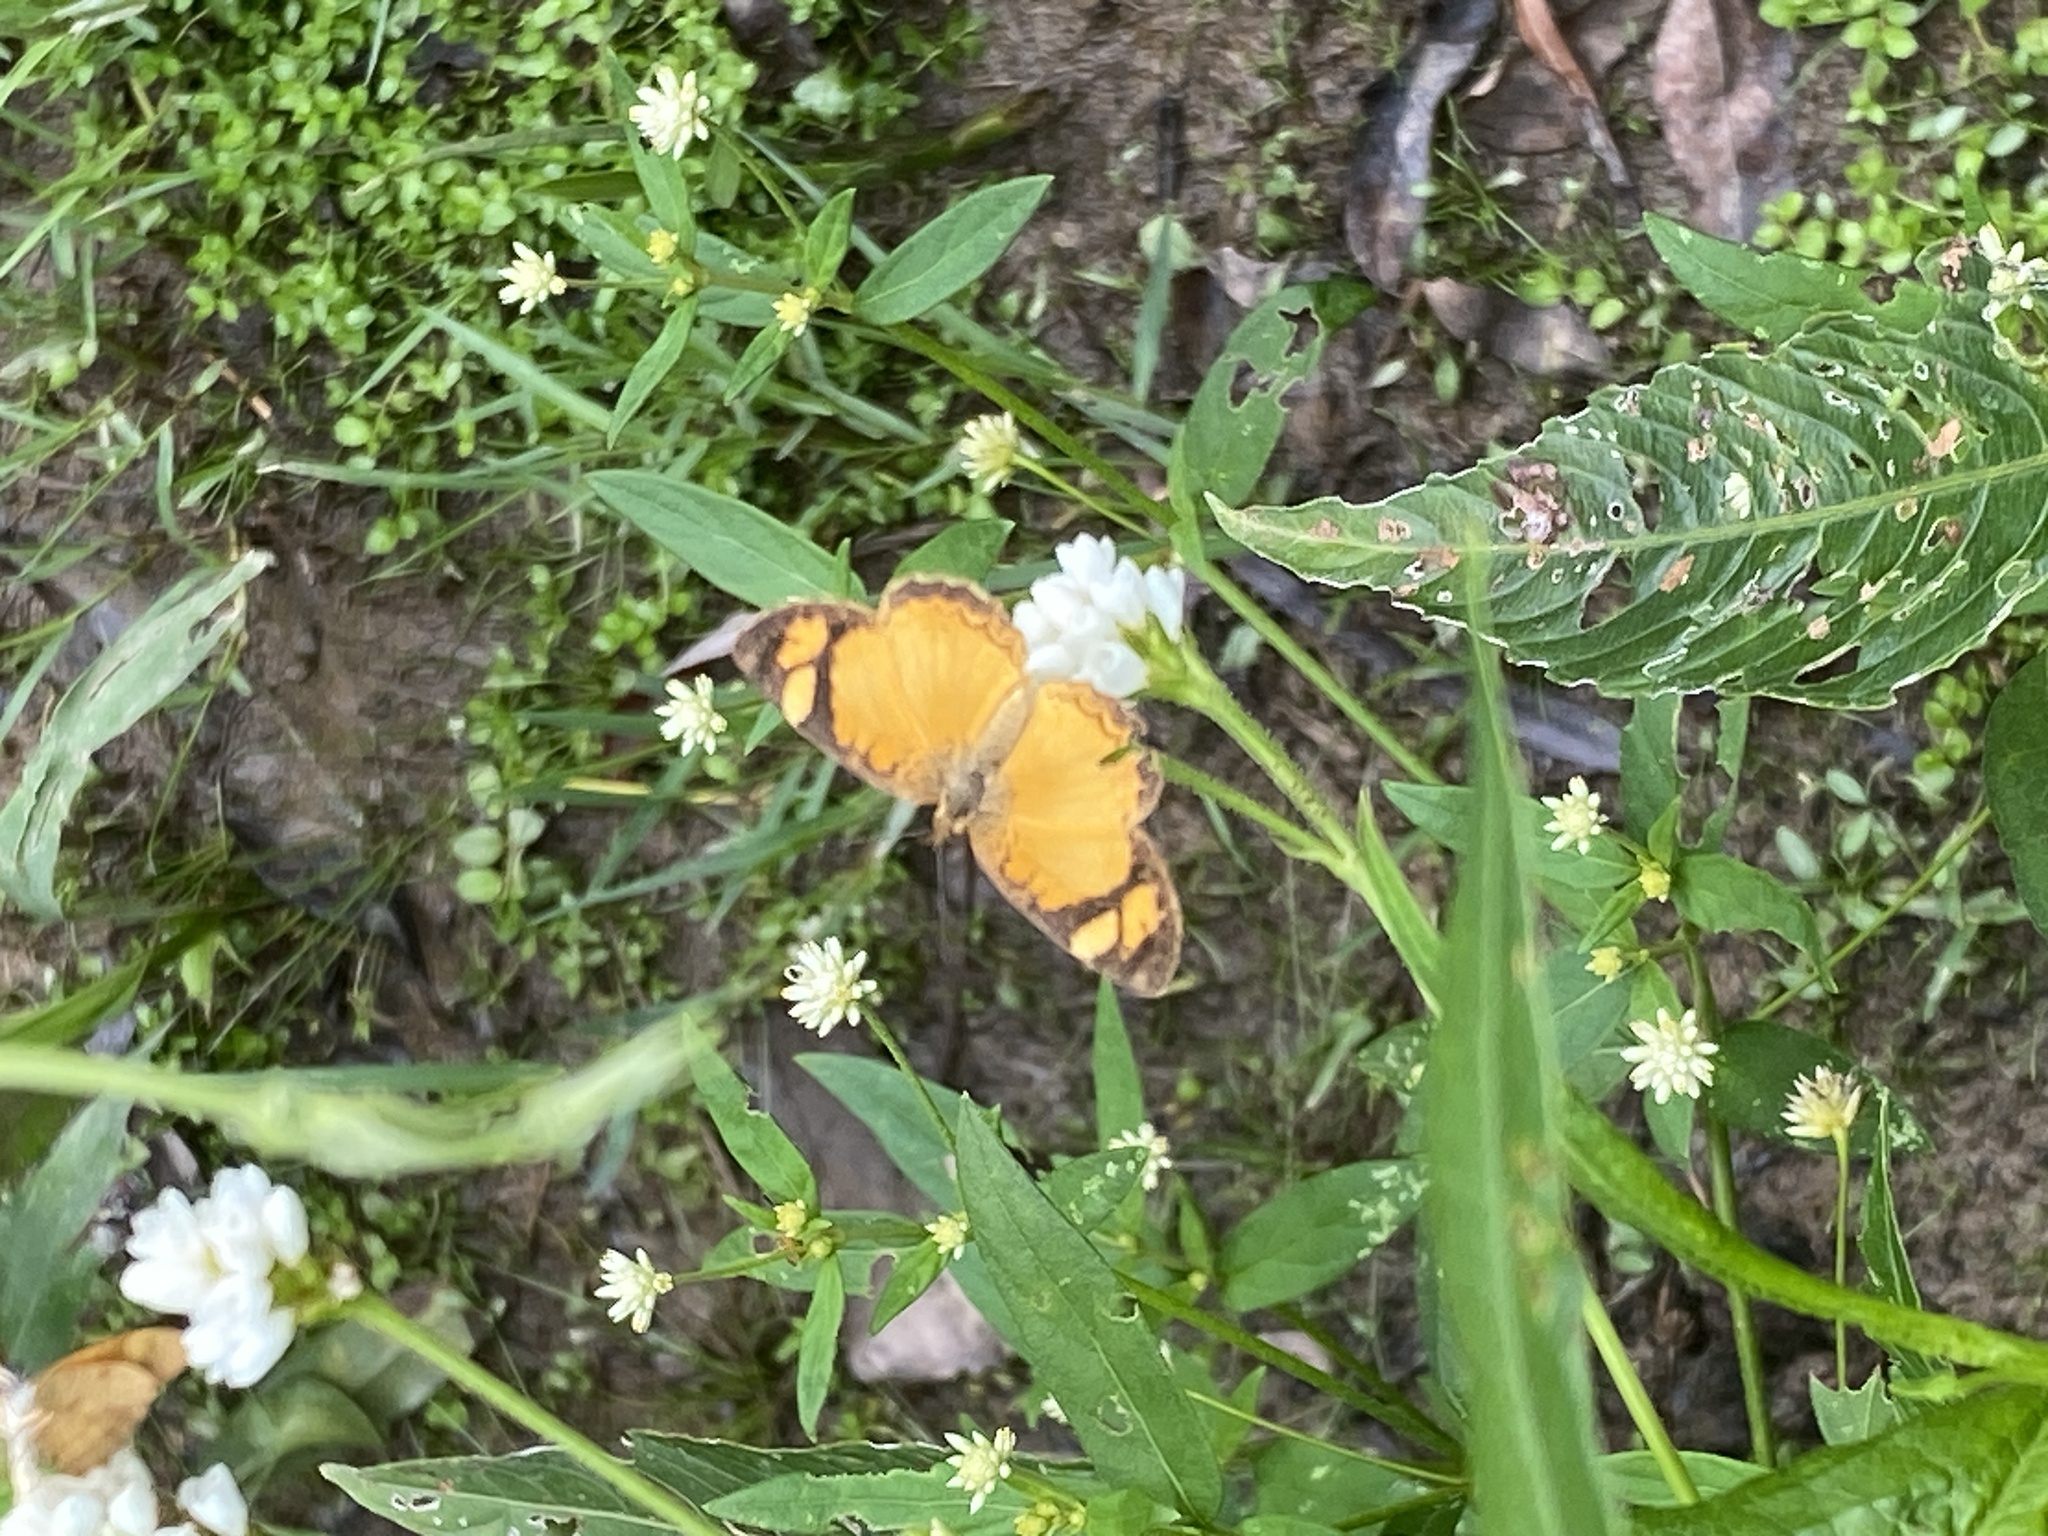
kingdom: Animalia
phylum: Arthropoda
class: Insecta
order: Lepidoptera
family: Nymphalidae
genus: Tegosa
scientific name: Tegosa claudina
